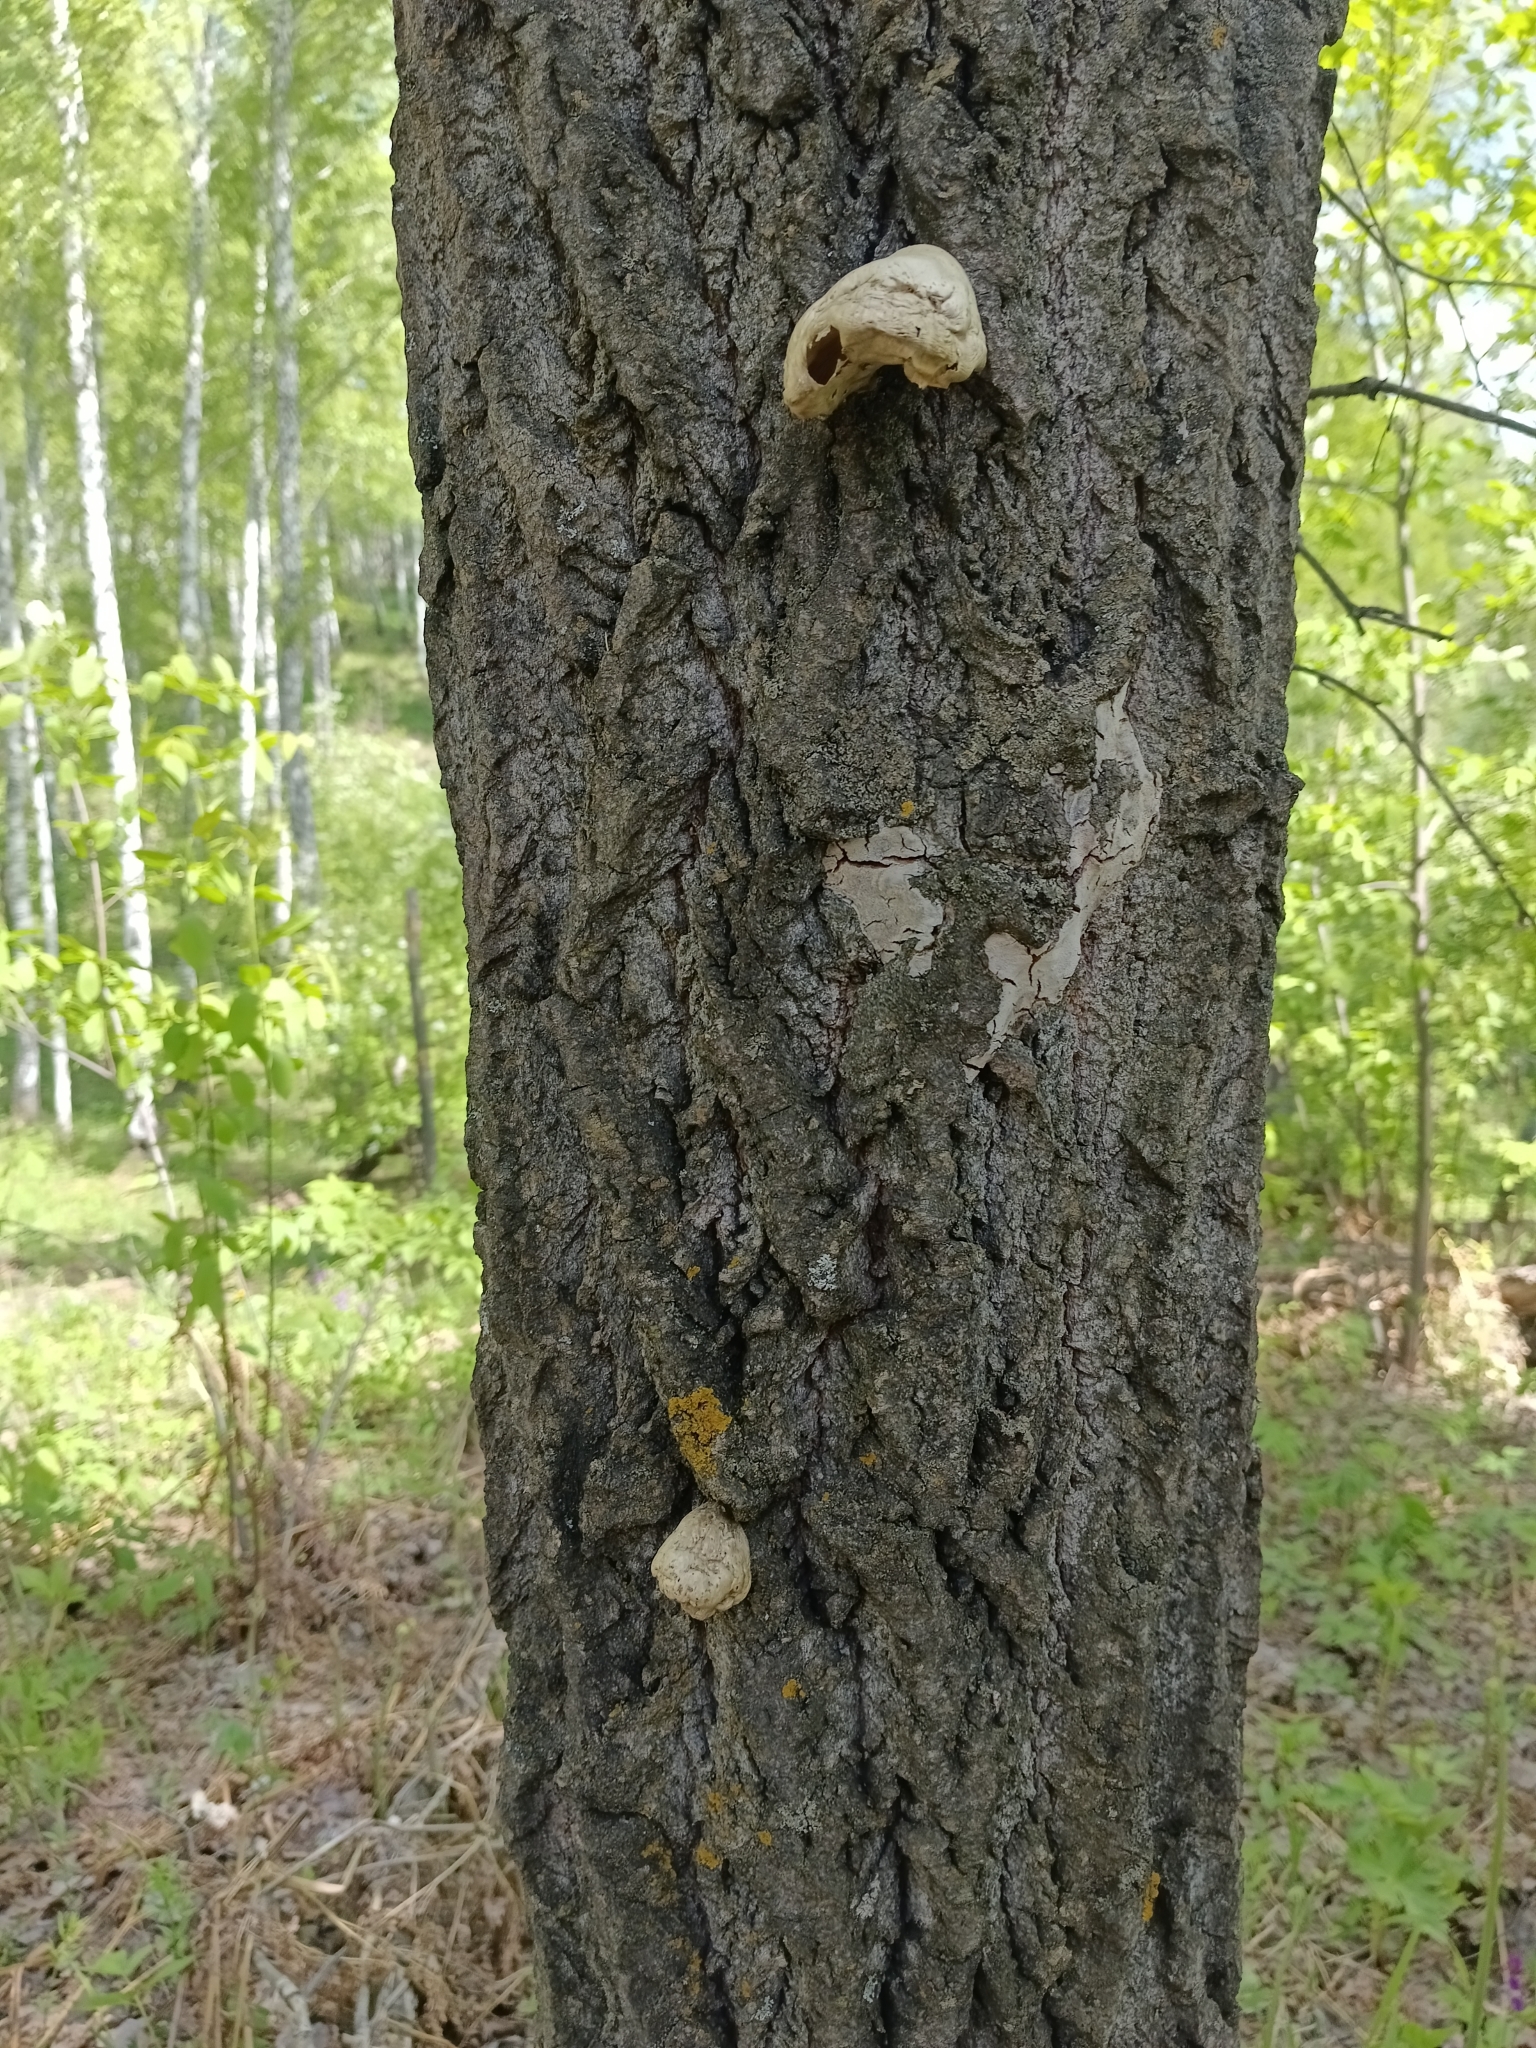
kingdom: Fungi
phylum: Basidiomycota
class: Agaricomycetes
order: Agaricales
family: Pleurotaceae
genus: Pleurotus
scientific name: Pleurotus calyptratus
